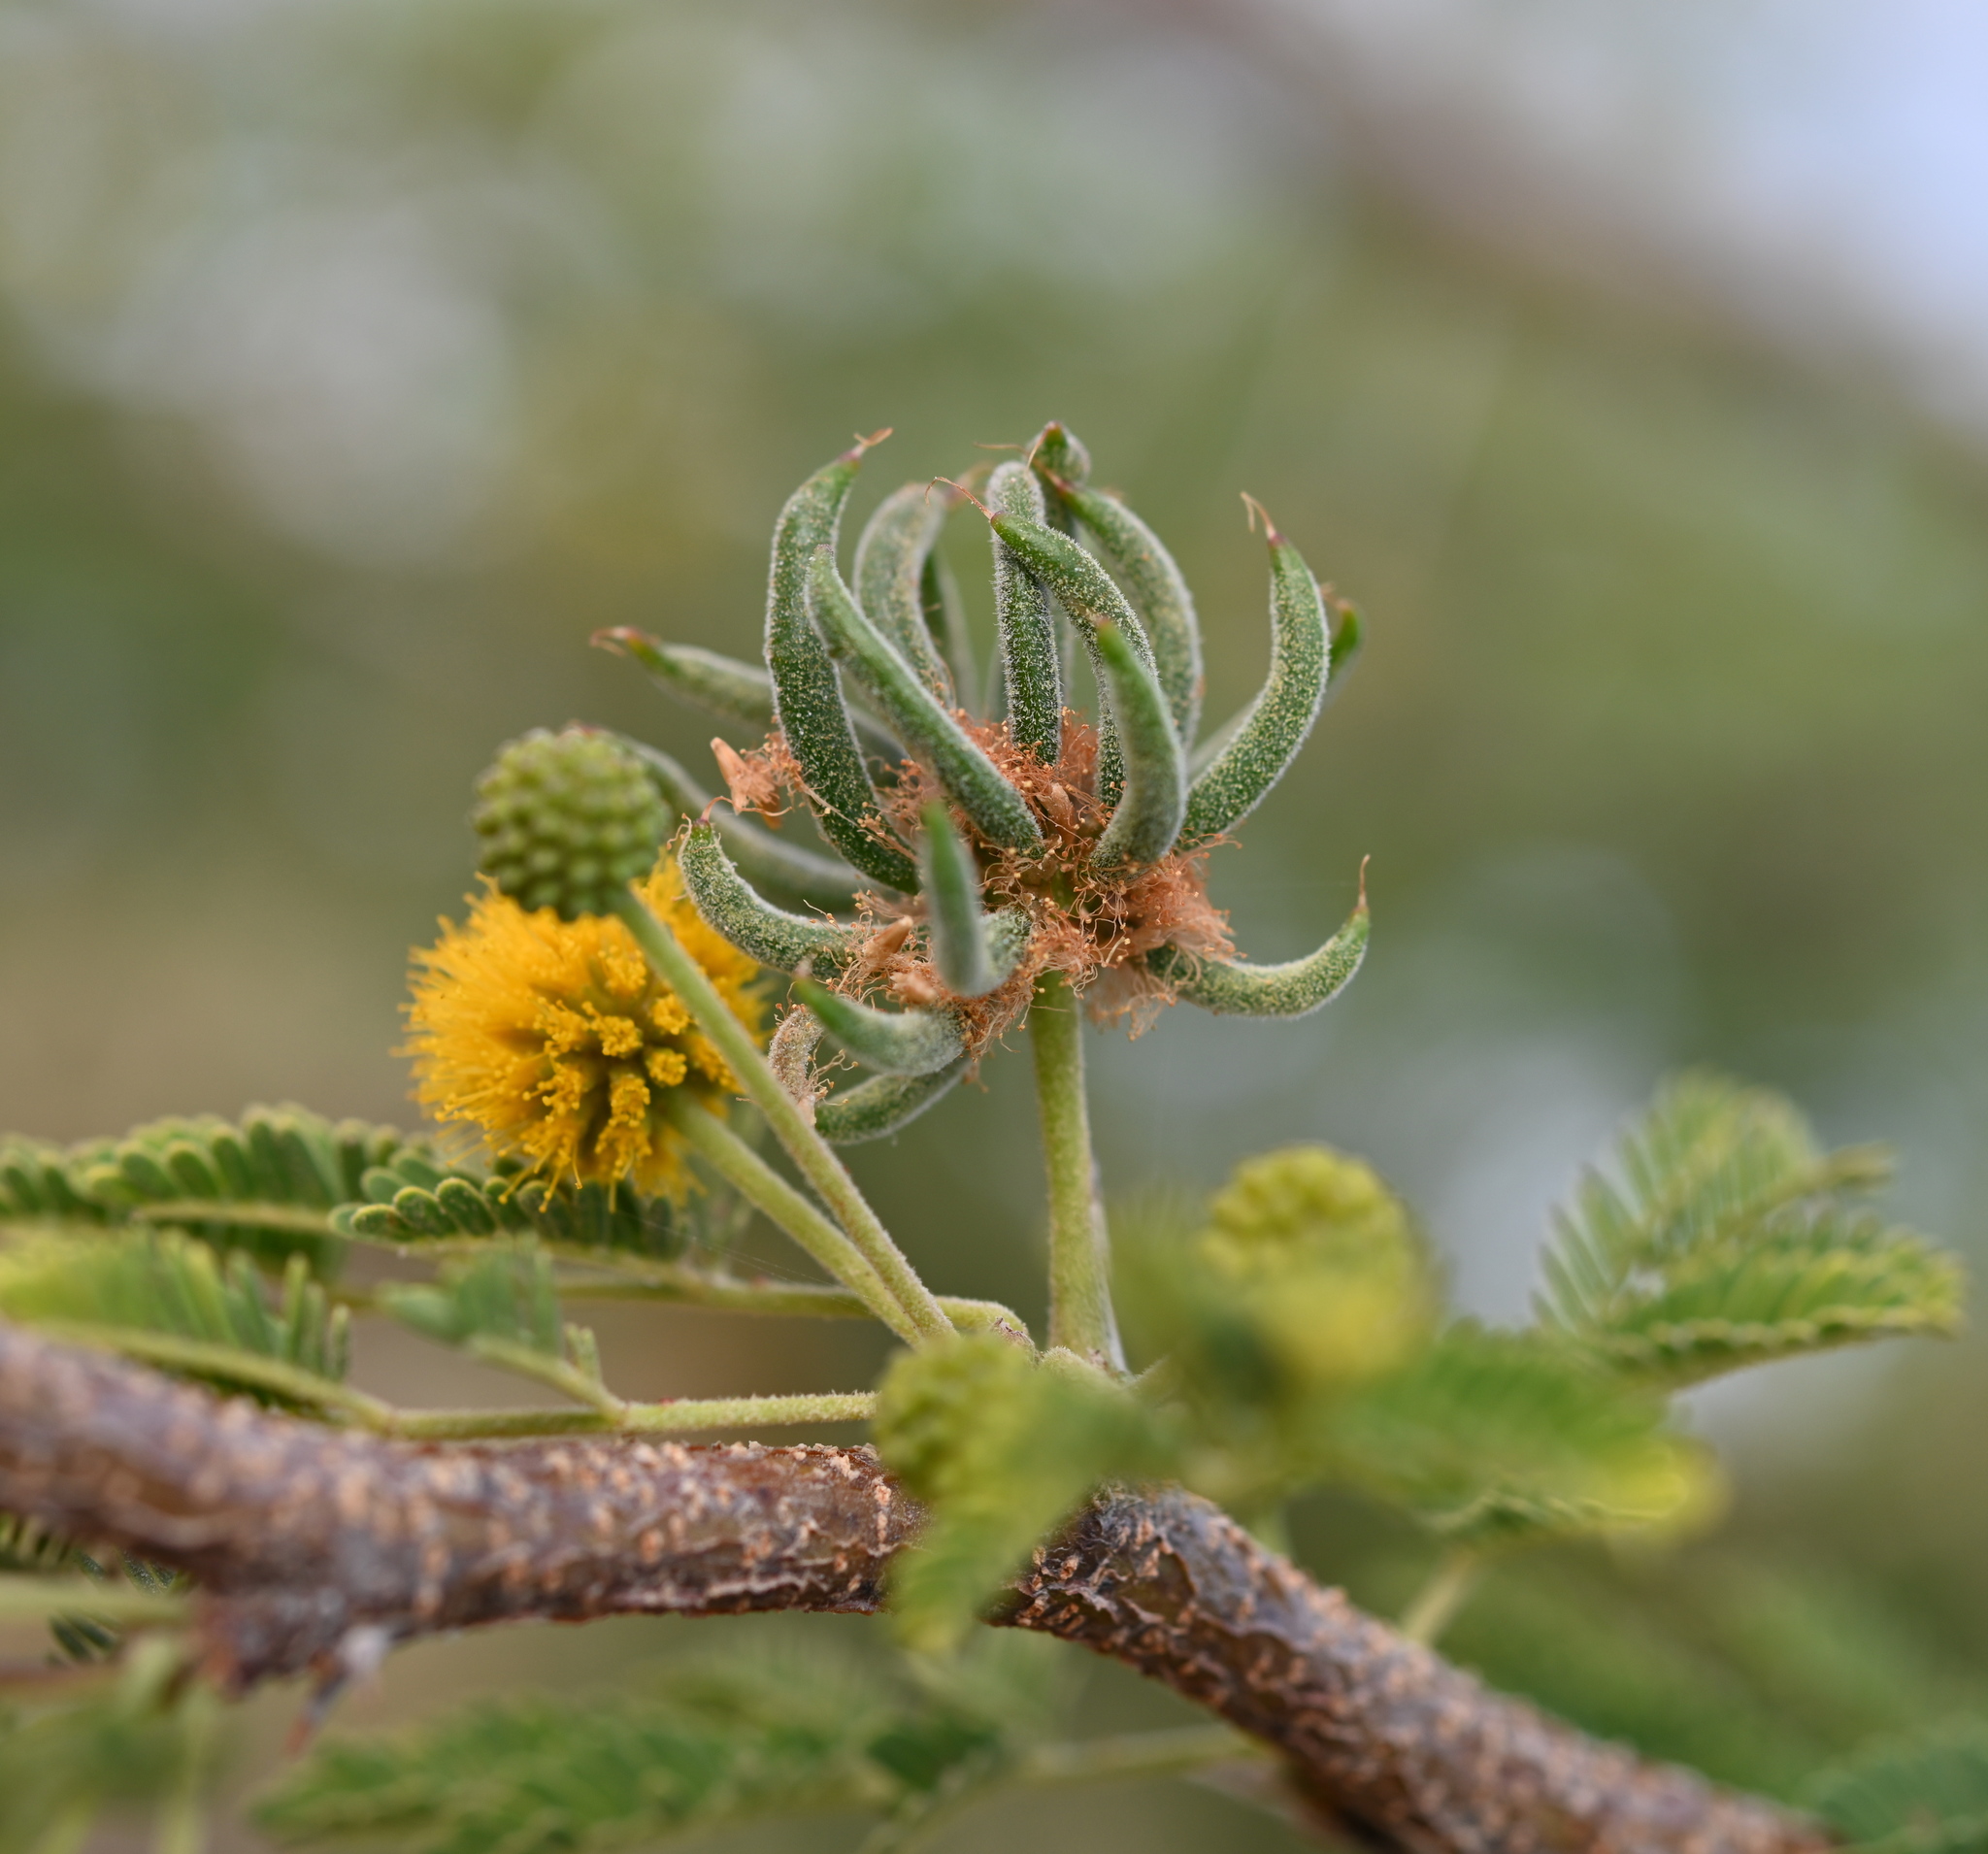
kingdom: Plantae
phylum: Tracheophyta
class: Magnoliopsida
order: Fabales
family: Fabaceae
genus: Vachellia
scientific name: Vachellia farnesiana
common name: Sweet acacia
